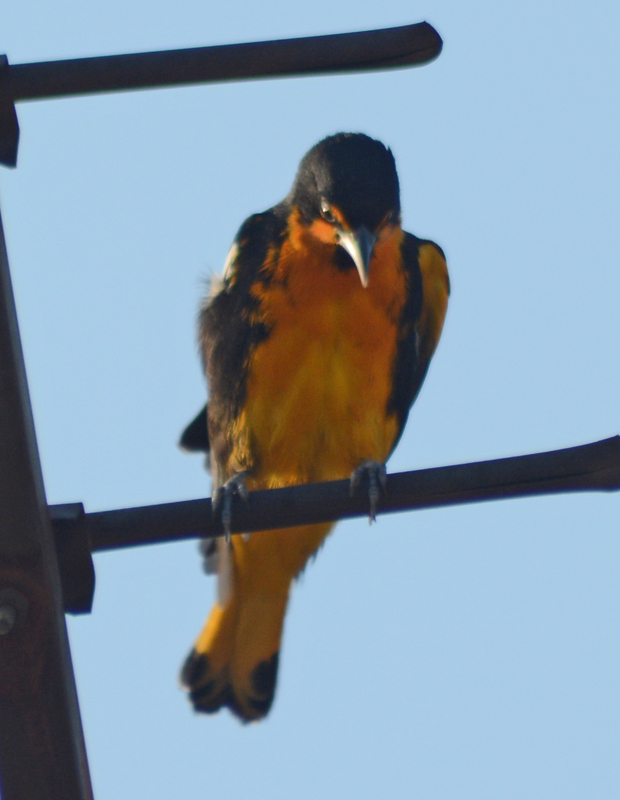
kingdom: Animalia
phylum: Chordata
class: Aves
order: Passeriformes
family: Icteridae
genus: Icterus
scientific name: Icterus abeillei
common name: Black-backed oriole
